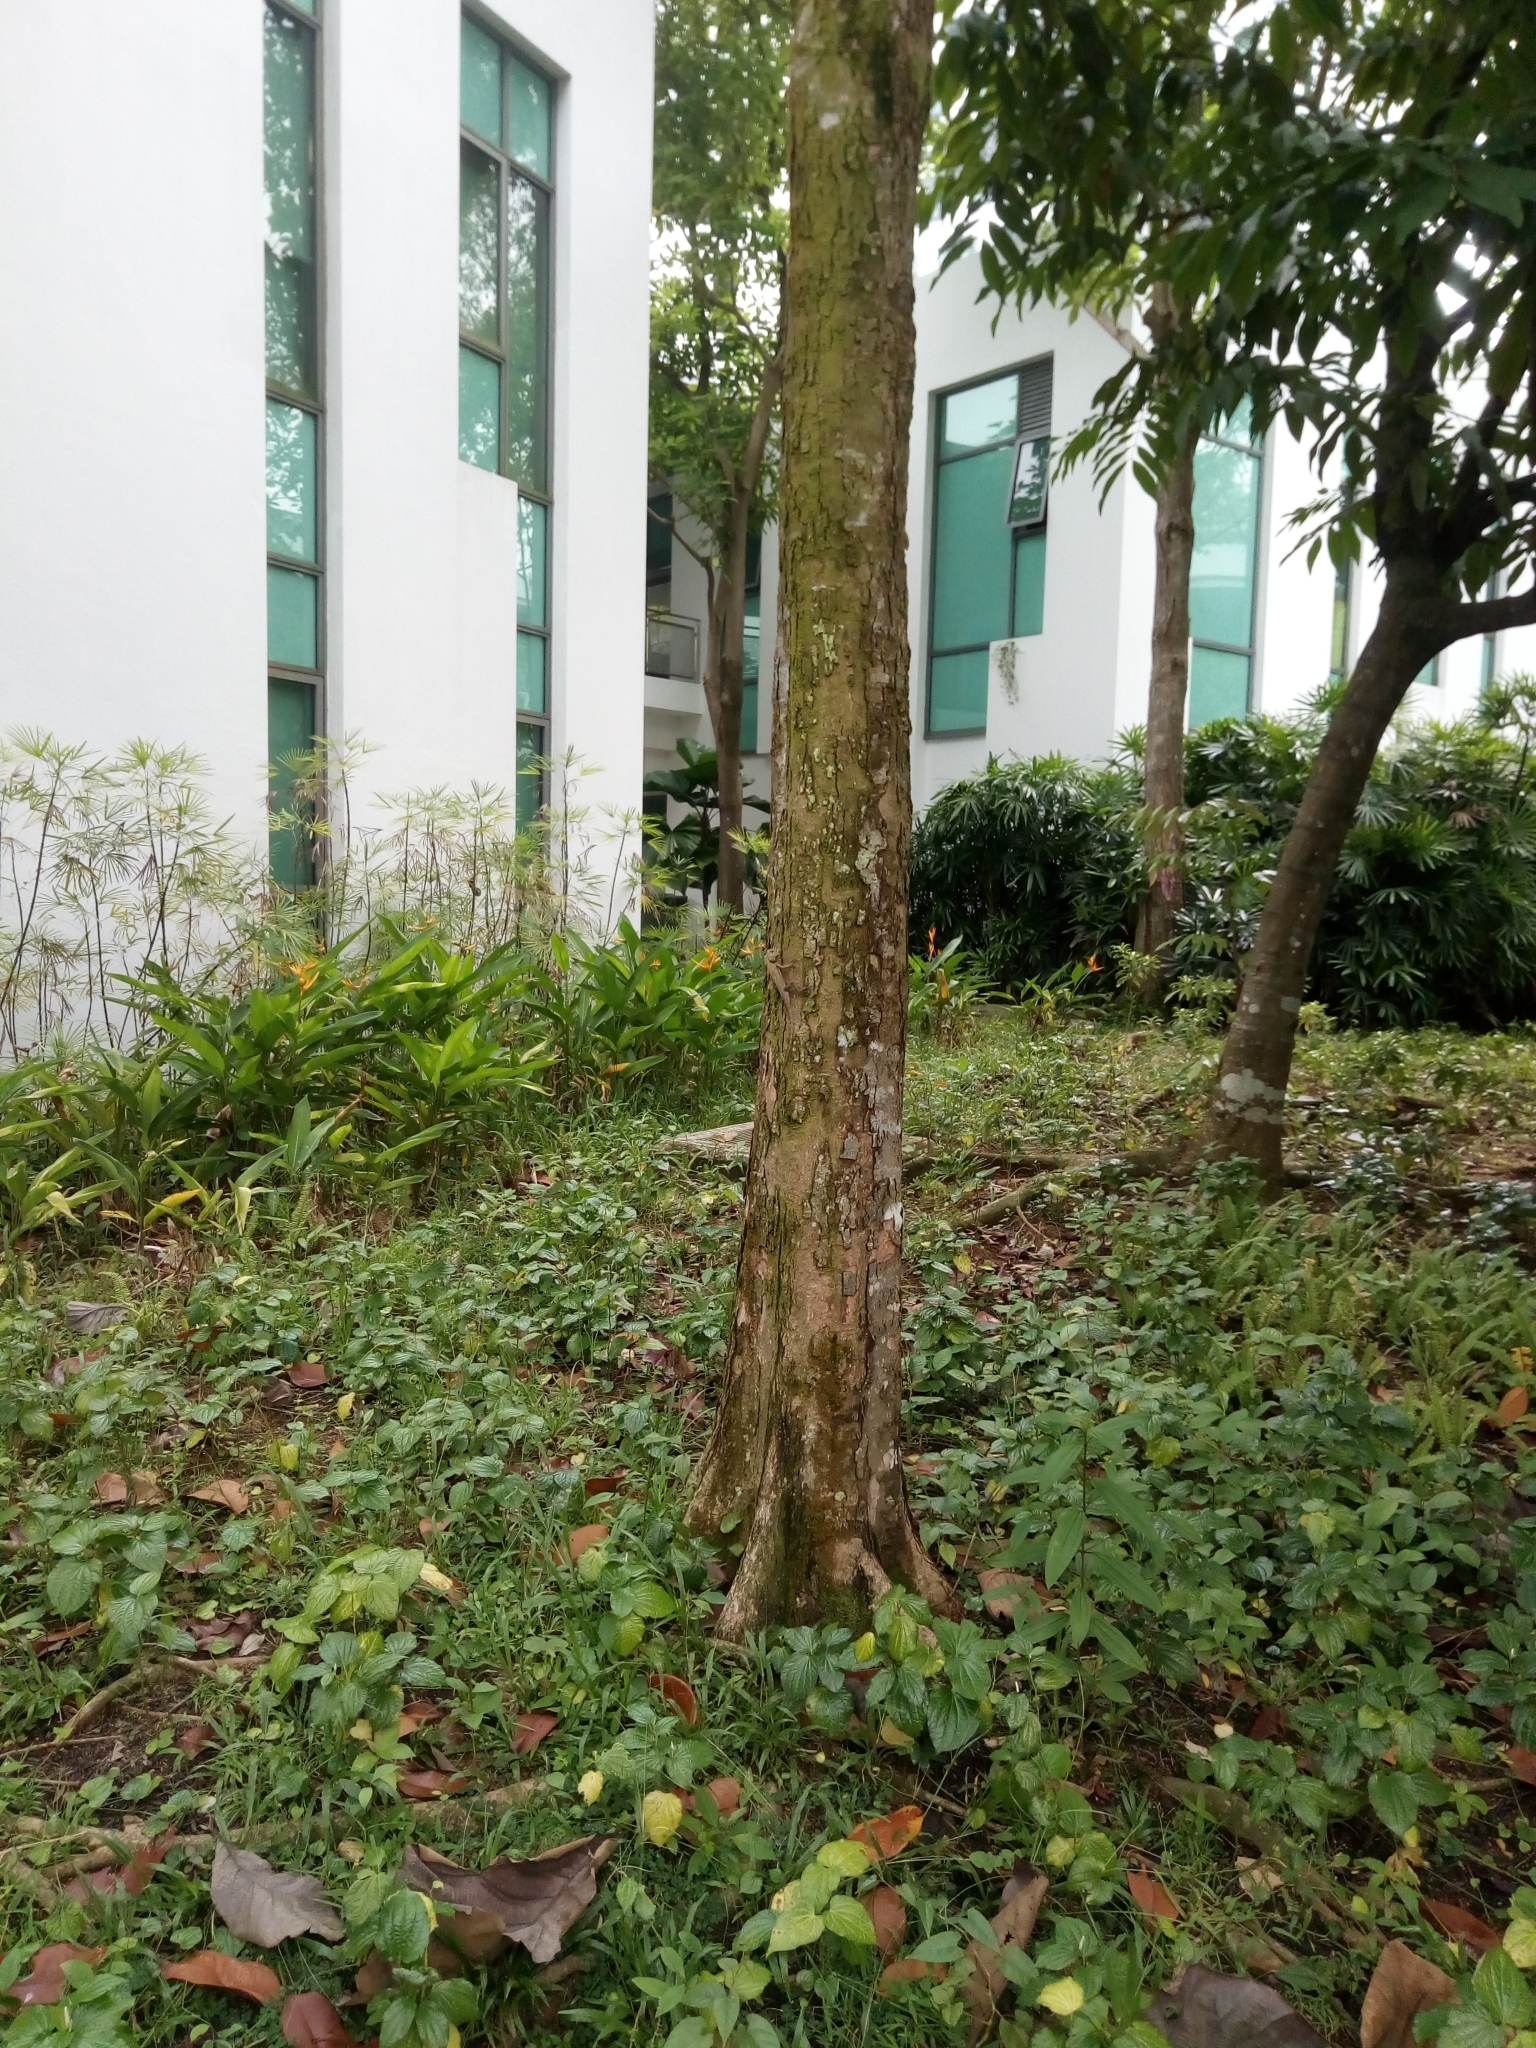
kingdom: Animalia
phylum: Chordata
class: Squamata
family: Agamidae
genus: Calotes
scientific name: Calotes versicolor
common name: Oriental garden lizard
